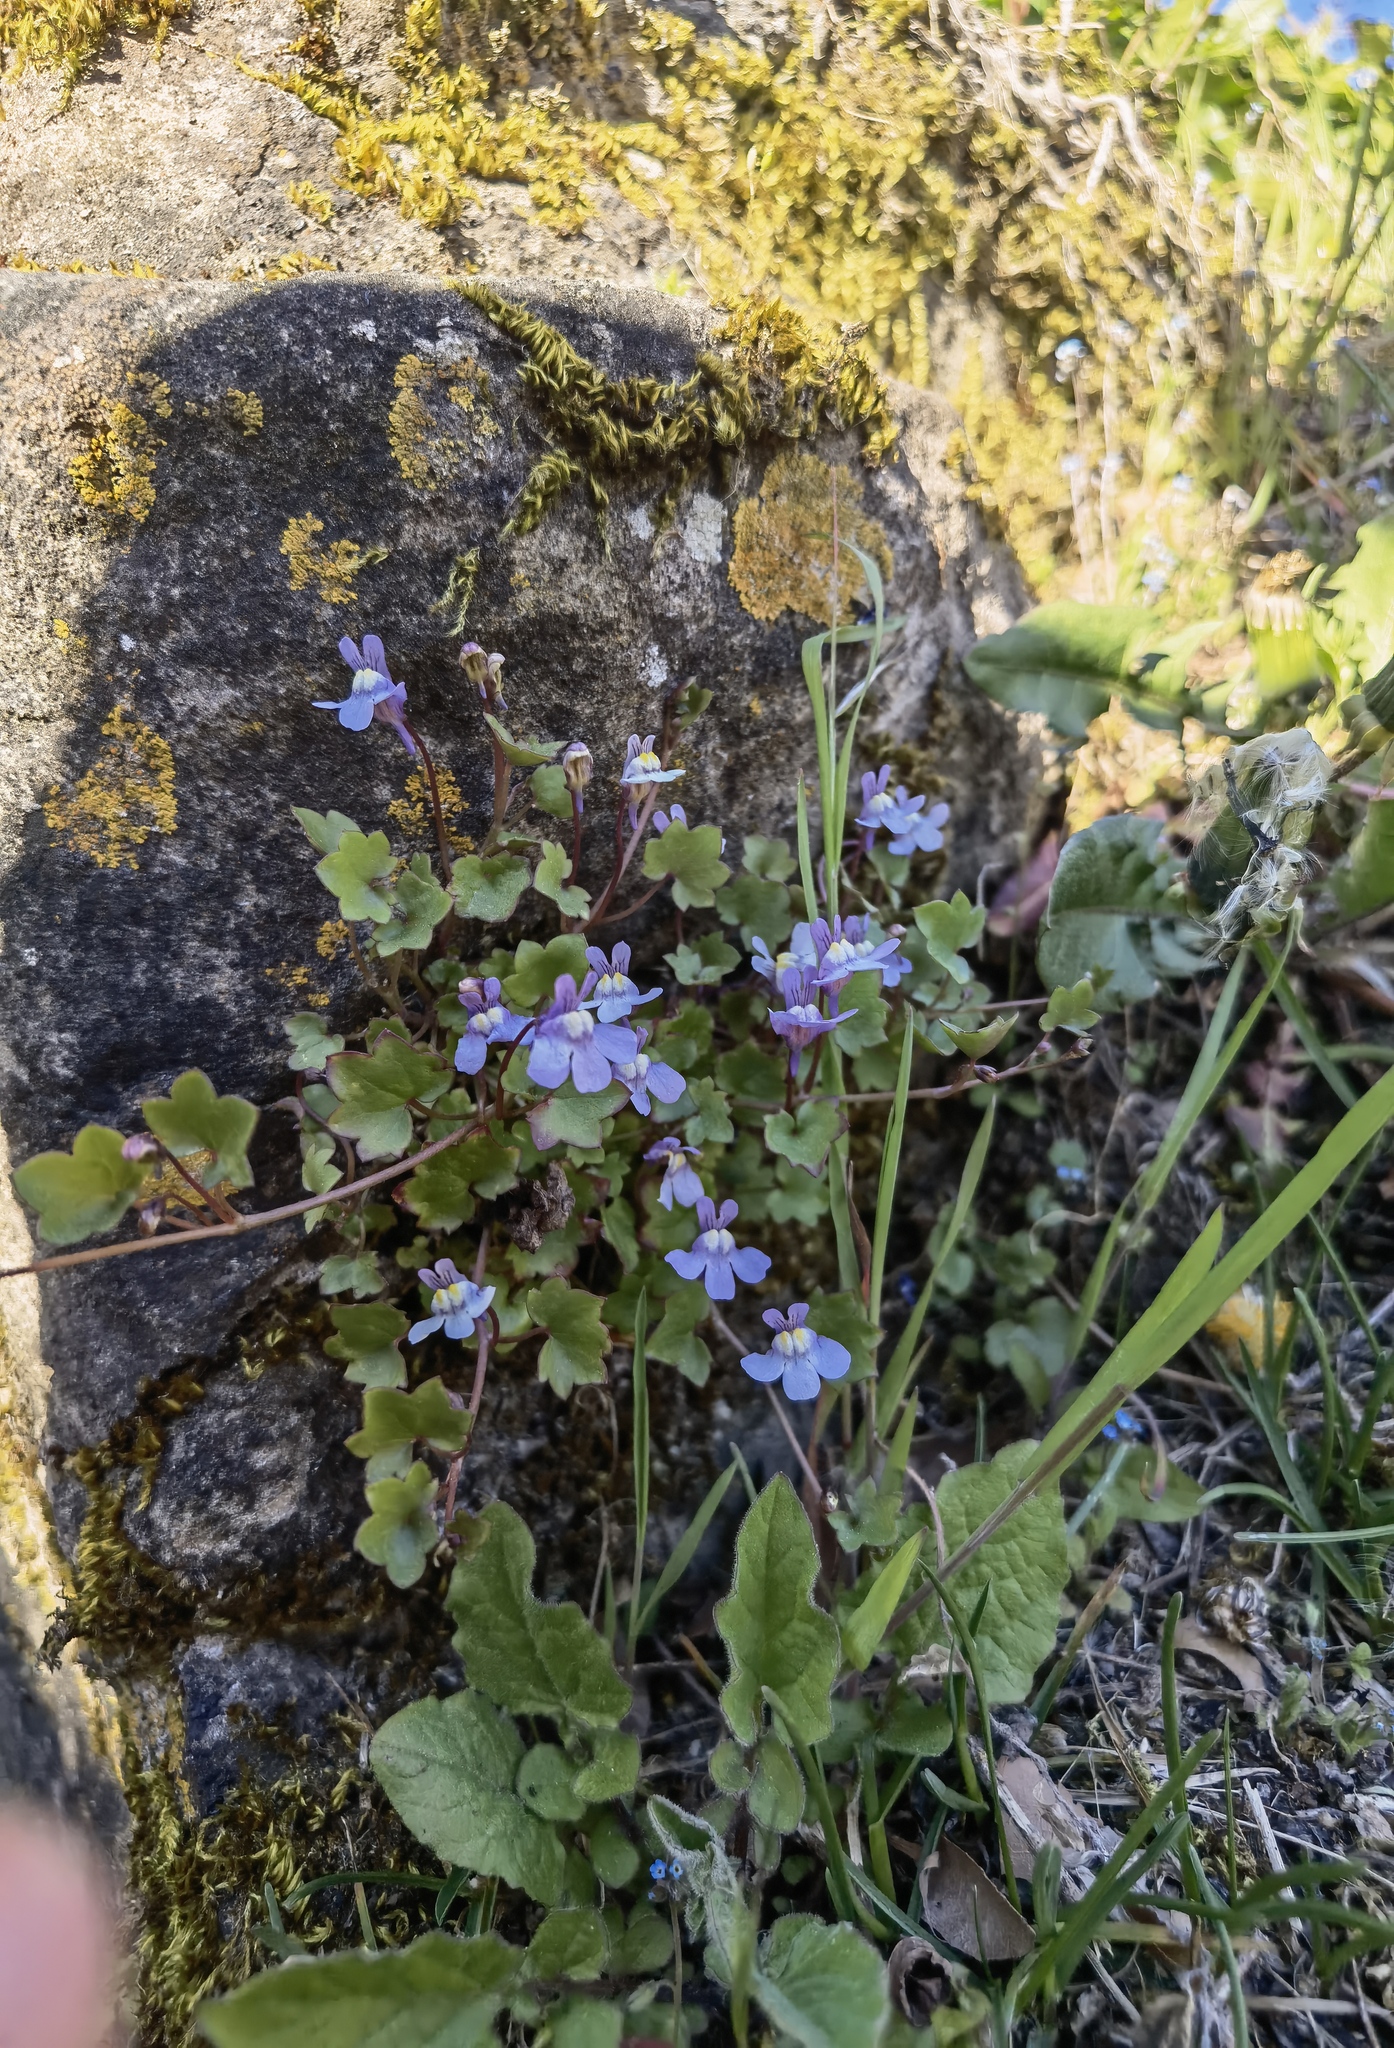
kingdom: Plantae
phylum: Tracheophyta
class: Magnoliopsida
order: Lamiales
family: Plantaginaceae
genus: Cymbalaria
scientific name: Cymbalaria muralis
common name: Ivy-leaved toadflax
